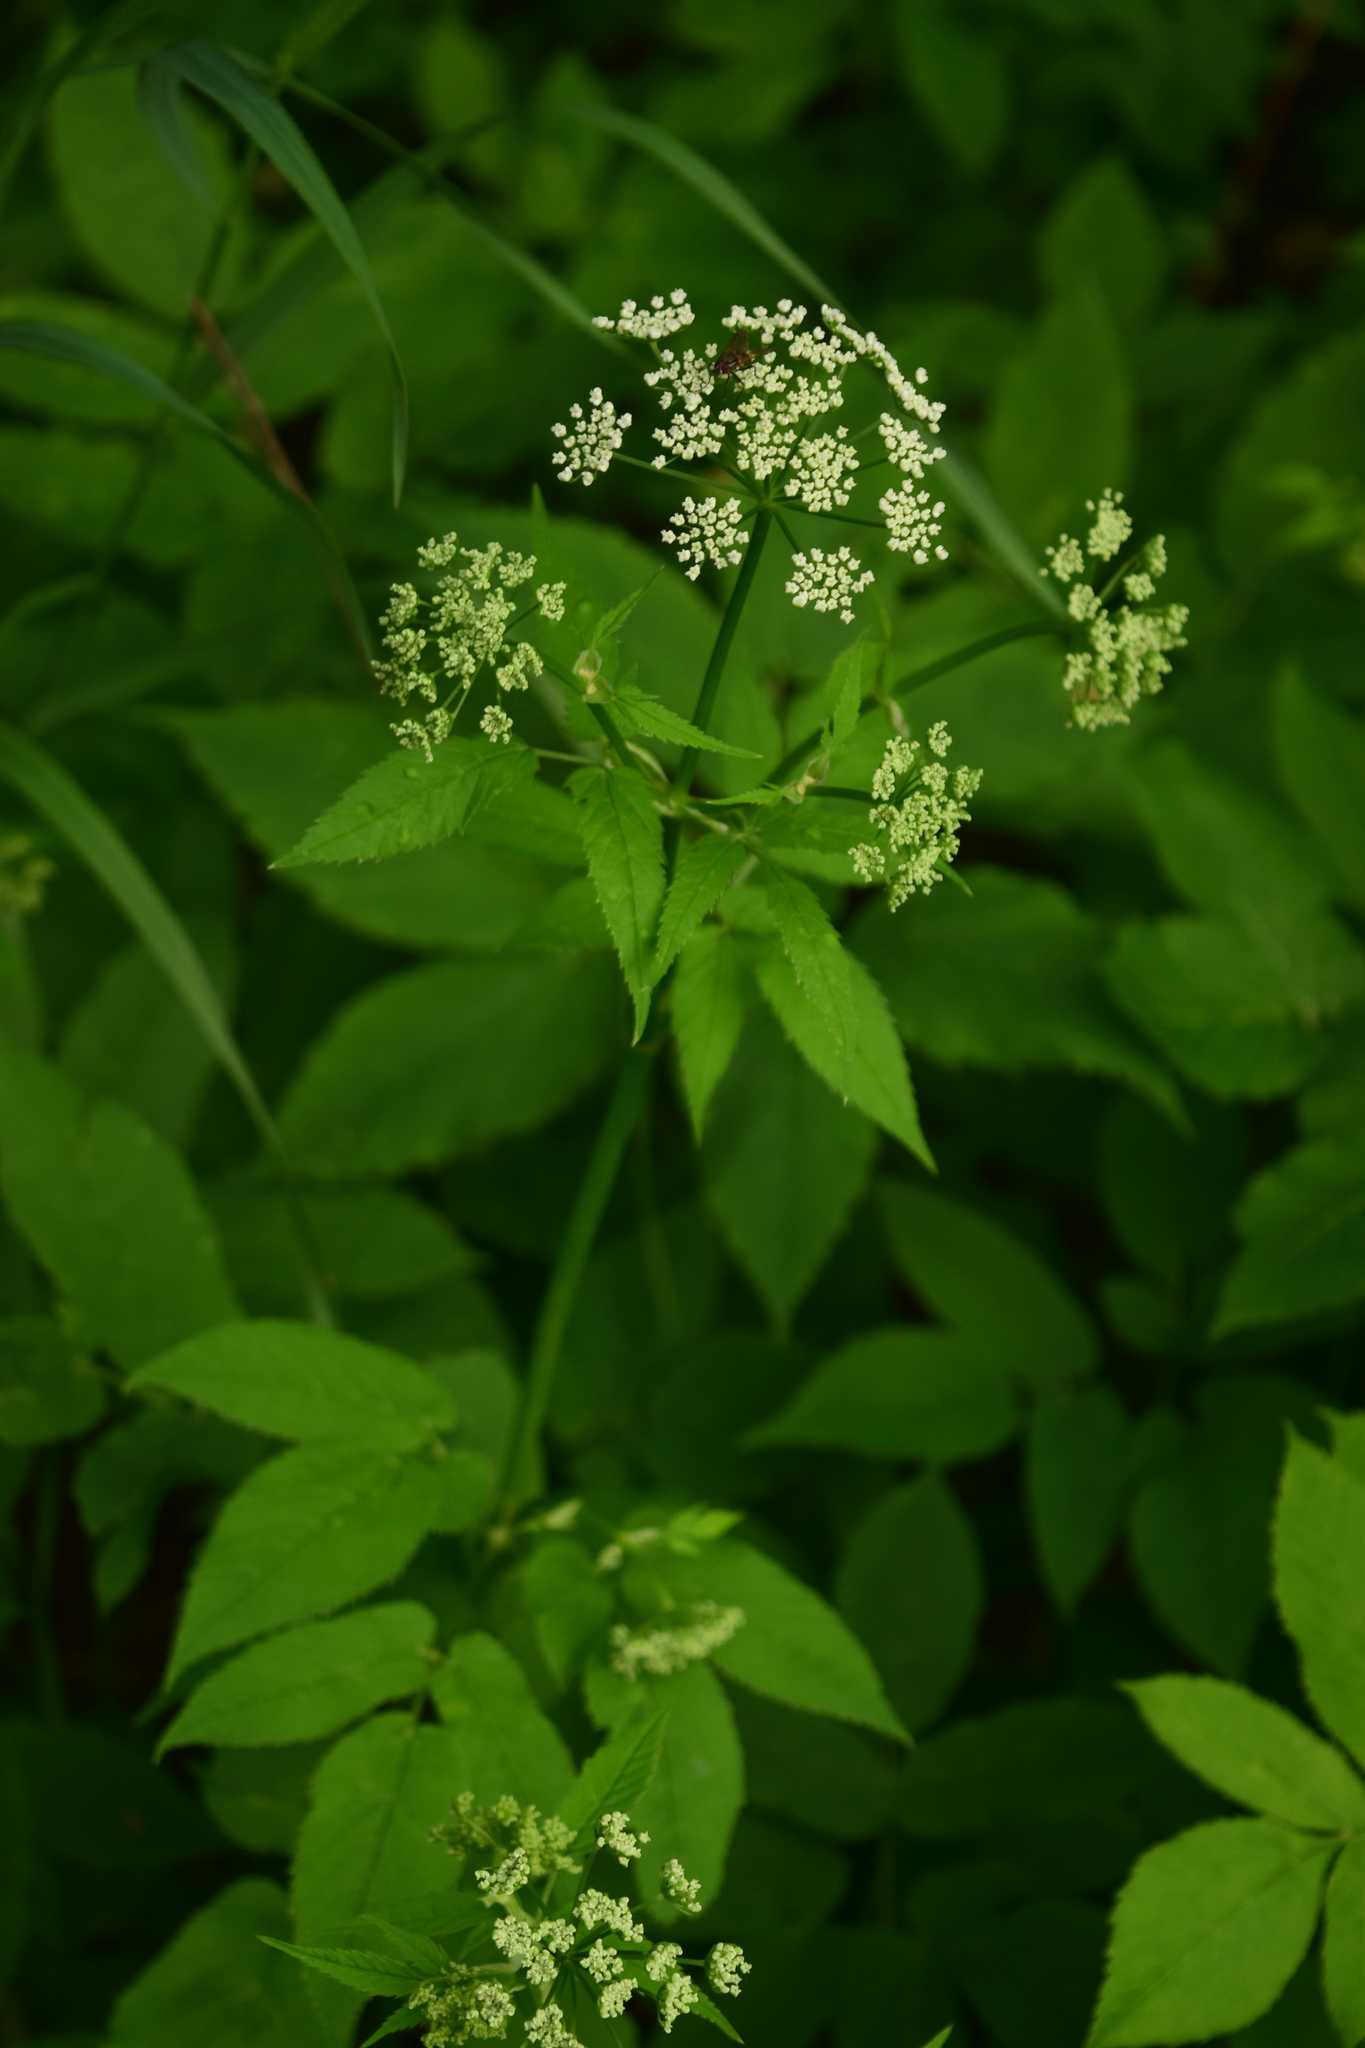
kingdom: Plantae
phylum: Tracheophyta
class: Magnoliopsida
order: Apiales
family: Apiaceae
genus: Aegopodium
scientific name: Aegopodium podagraria
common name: Ground-elder
